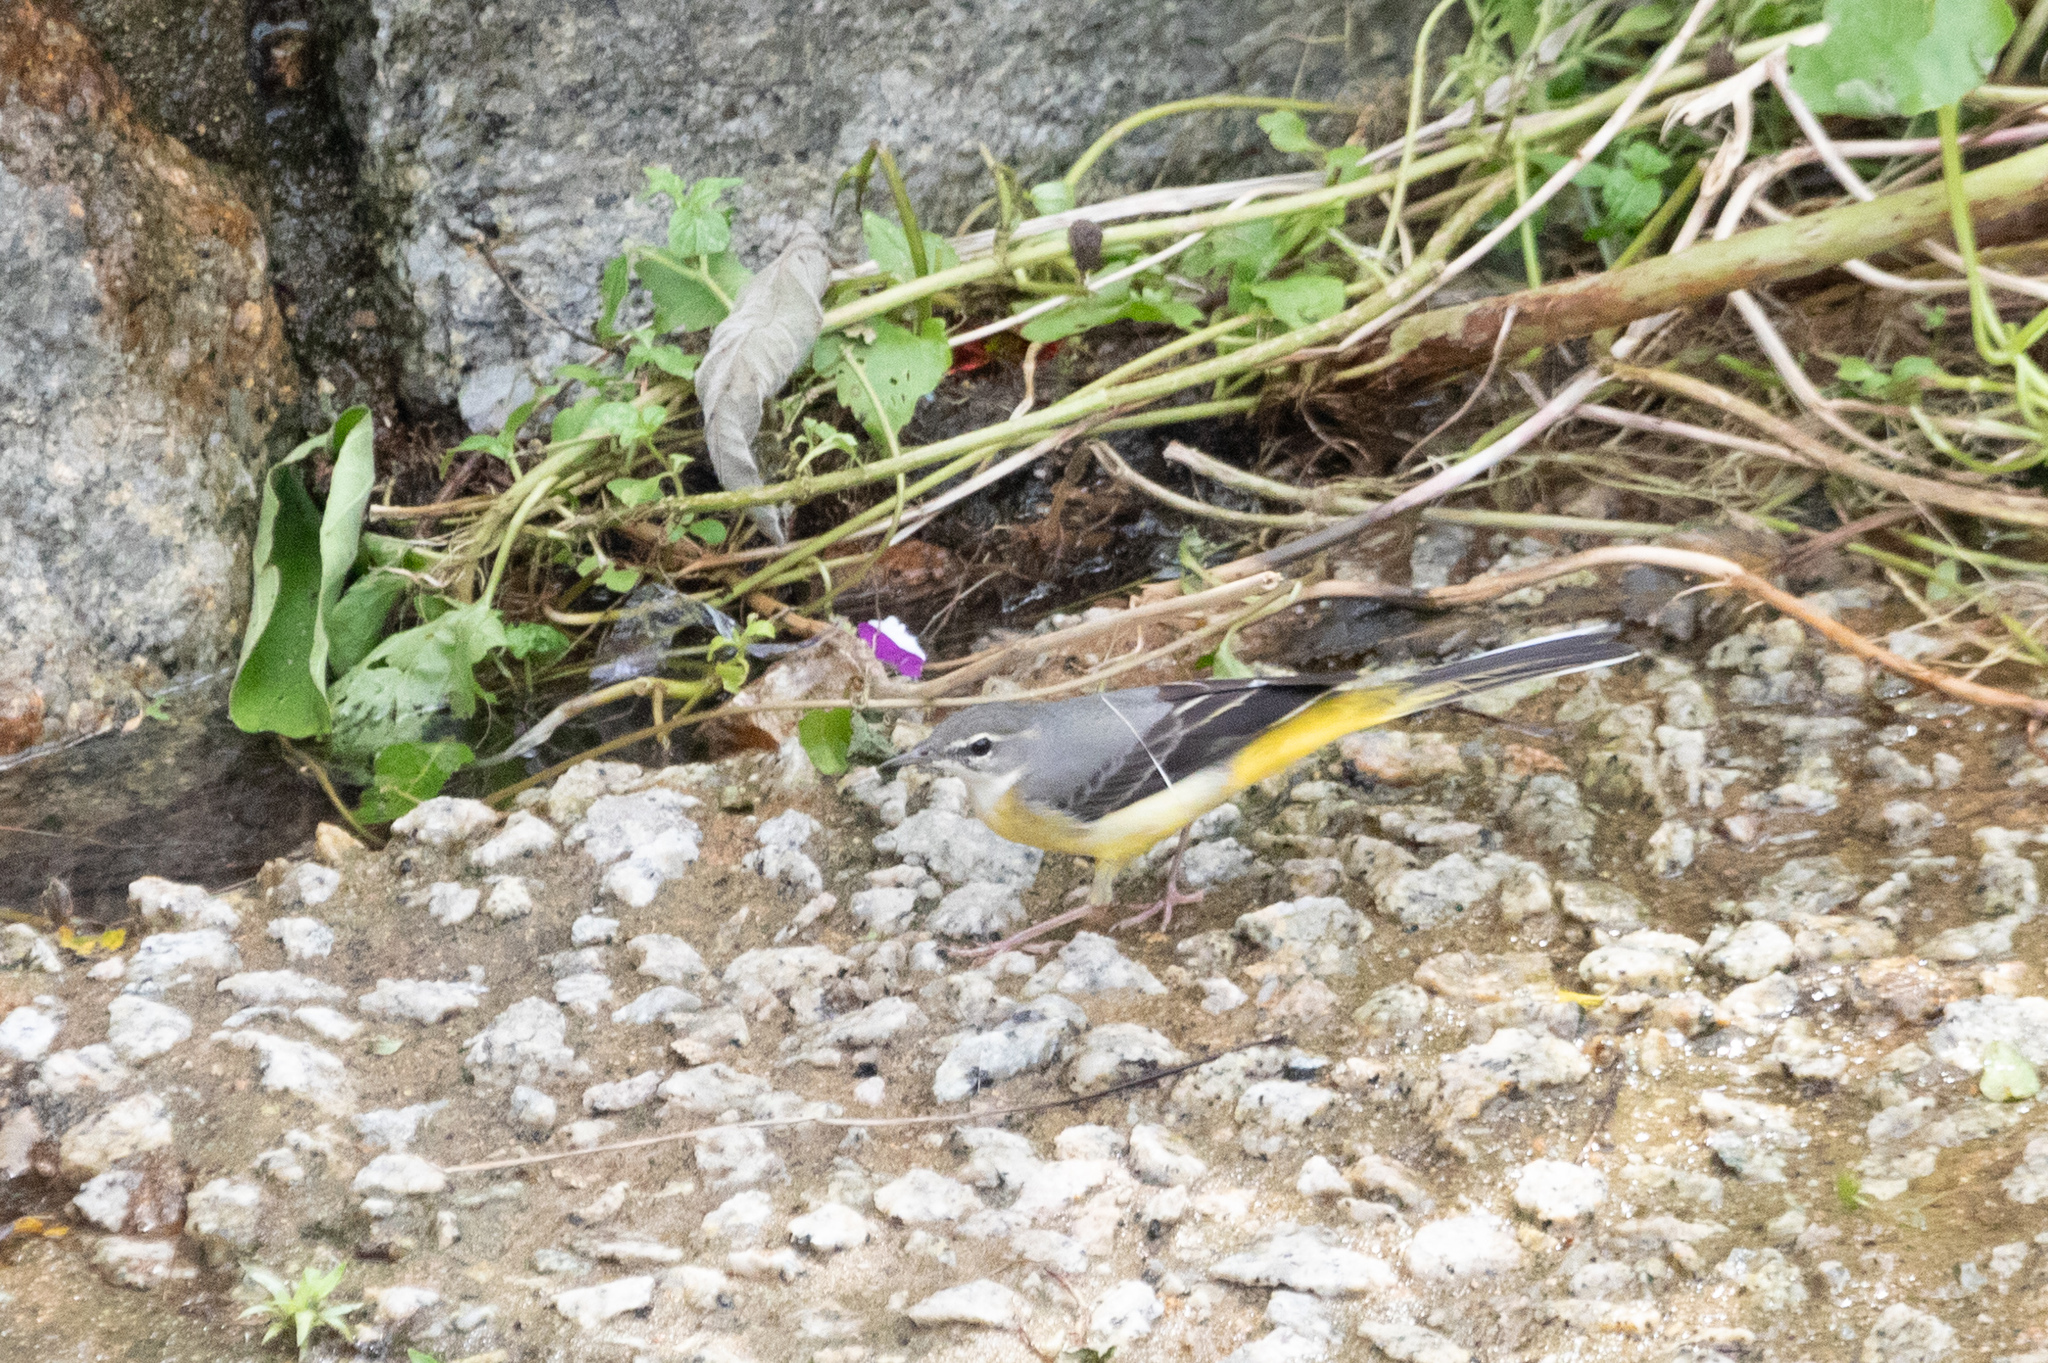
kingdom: Animalia
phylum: Chordata
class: Aves
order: Passeriformes
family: Motacillidae
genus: Motacilla
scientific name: Motacilla cinerea
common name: Grey wagtail
